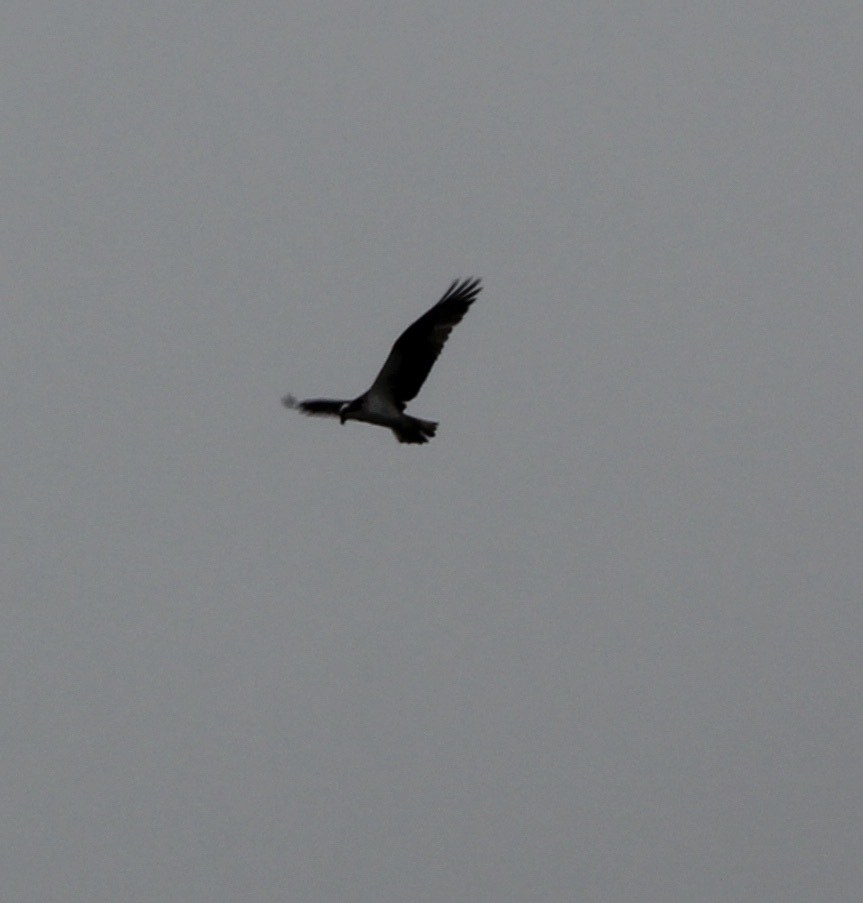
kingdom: Animalia
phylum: Chordata
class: Aves
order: Accipitriformes
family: Pandionidae
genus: Pandion
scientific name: Pandion haliaetus
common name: Osprey
